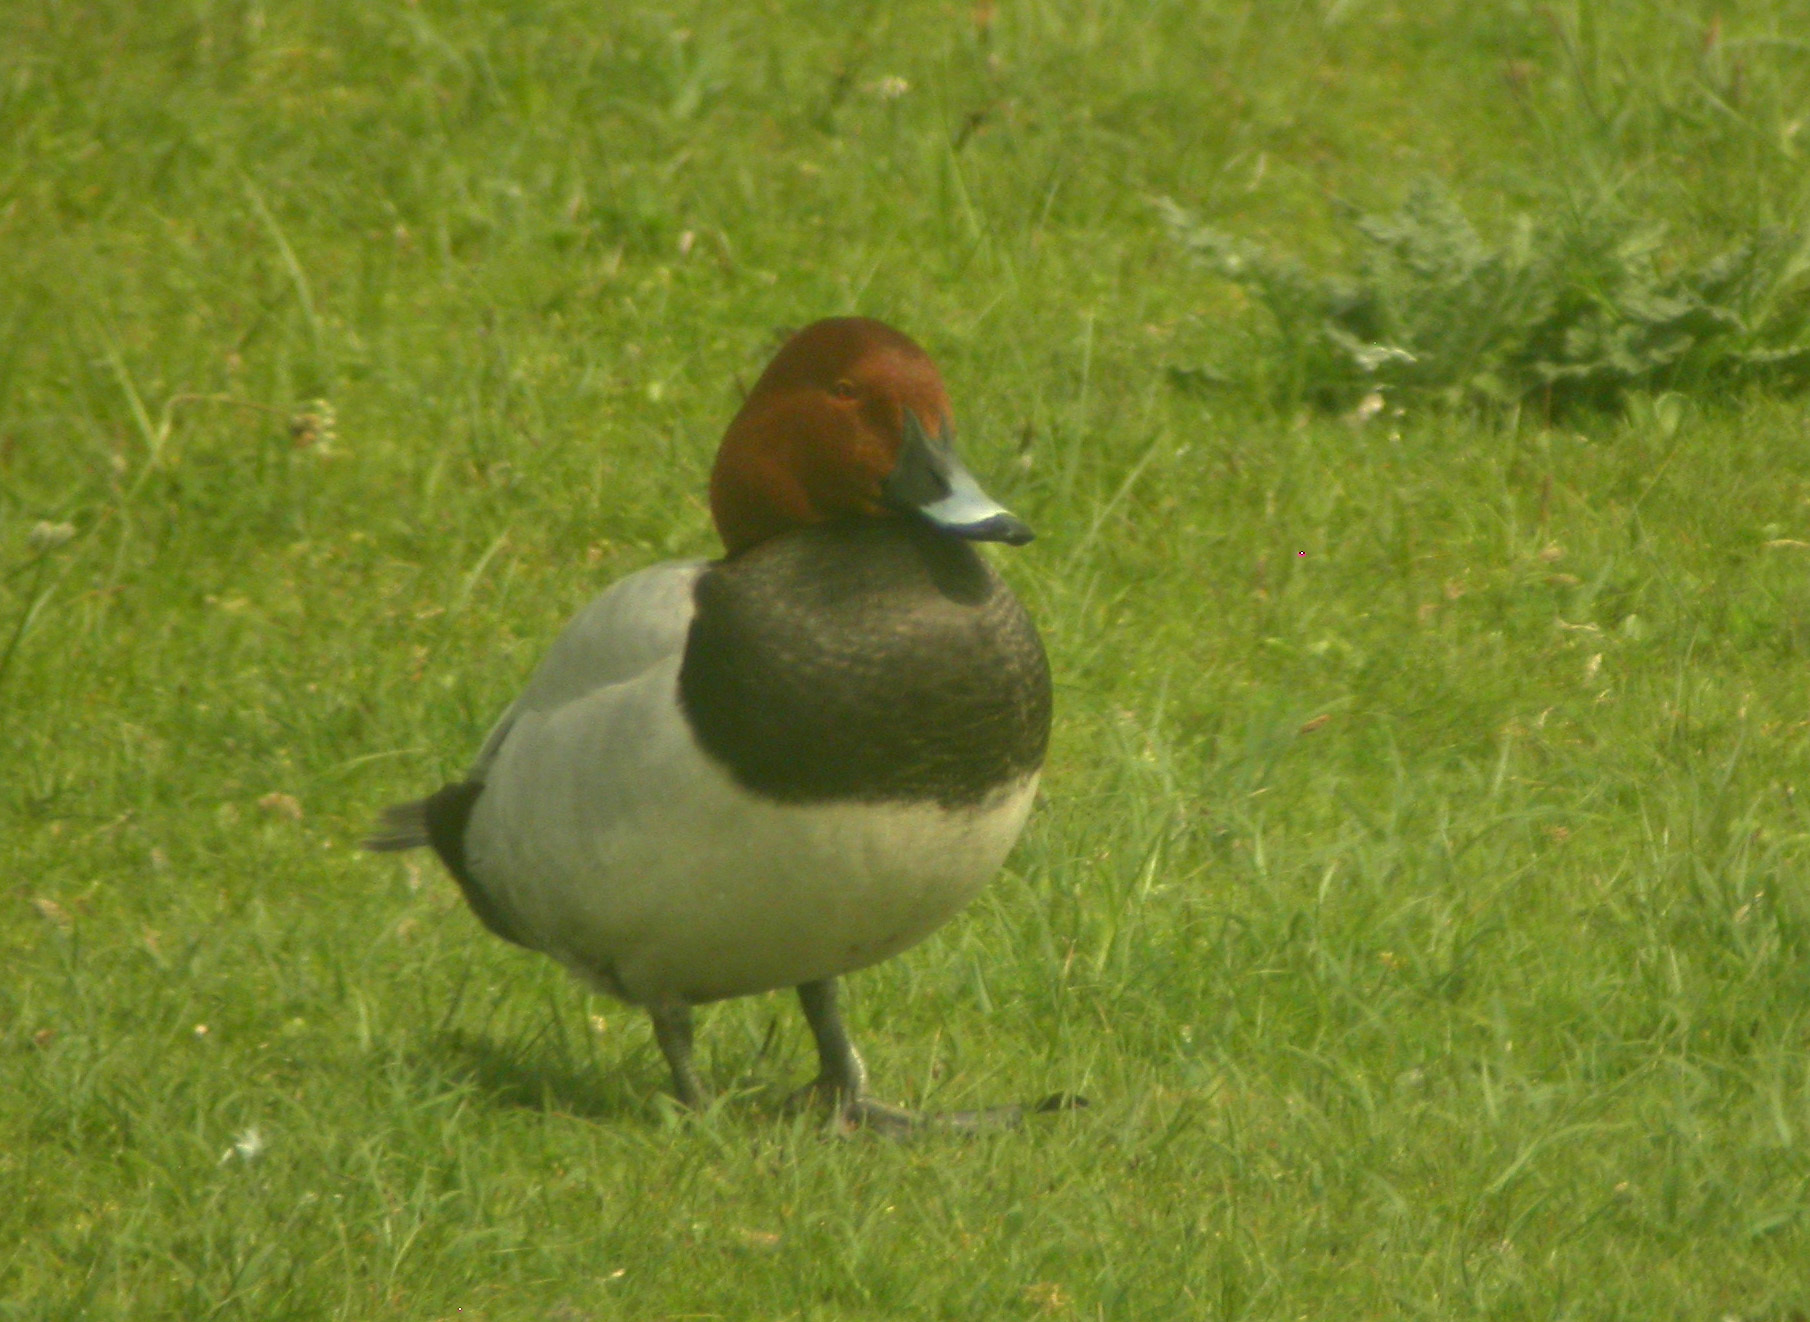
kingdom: Animalia
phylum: Chordata
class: Aves
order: Anseriformes
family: Anatidae
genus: Aythya
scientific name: Aythya ferina
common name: Common pochard
